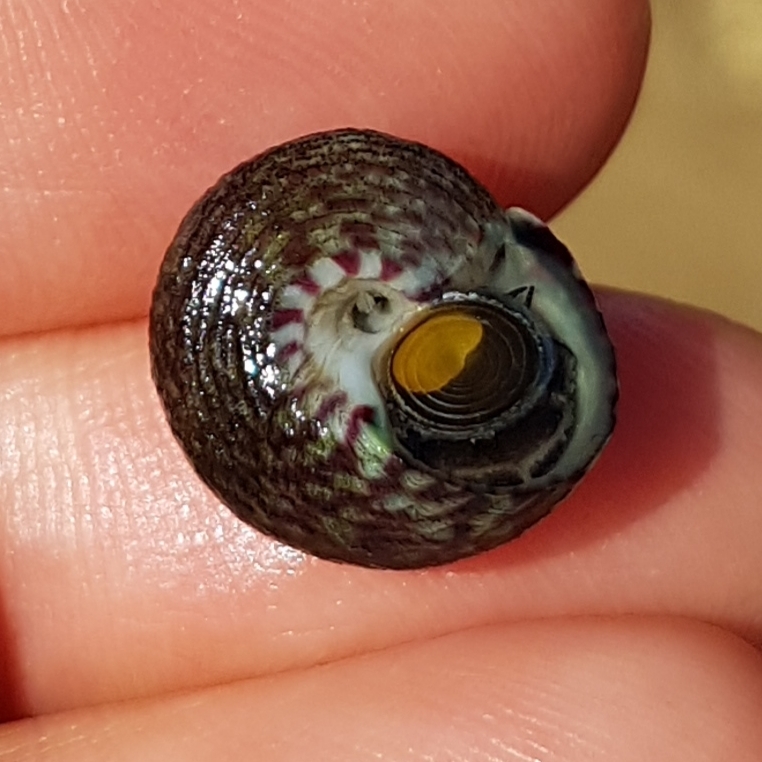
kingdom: Animalia
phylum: Mollusca
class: Gastropoda
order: Trochida
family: Trochidae
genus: Steromphala
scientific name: Steromphala umbilicalis
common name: Flat top shell
